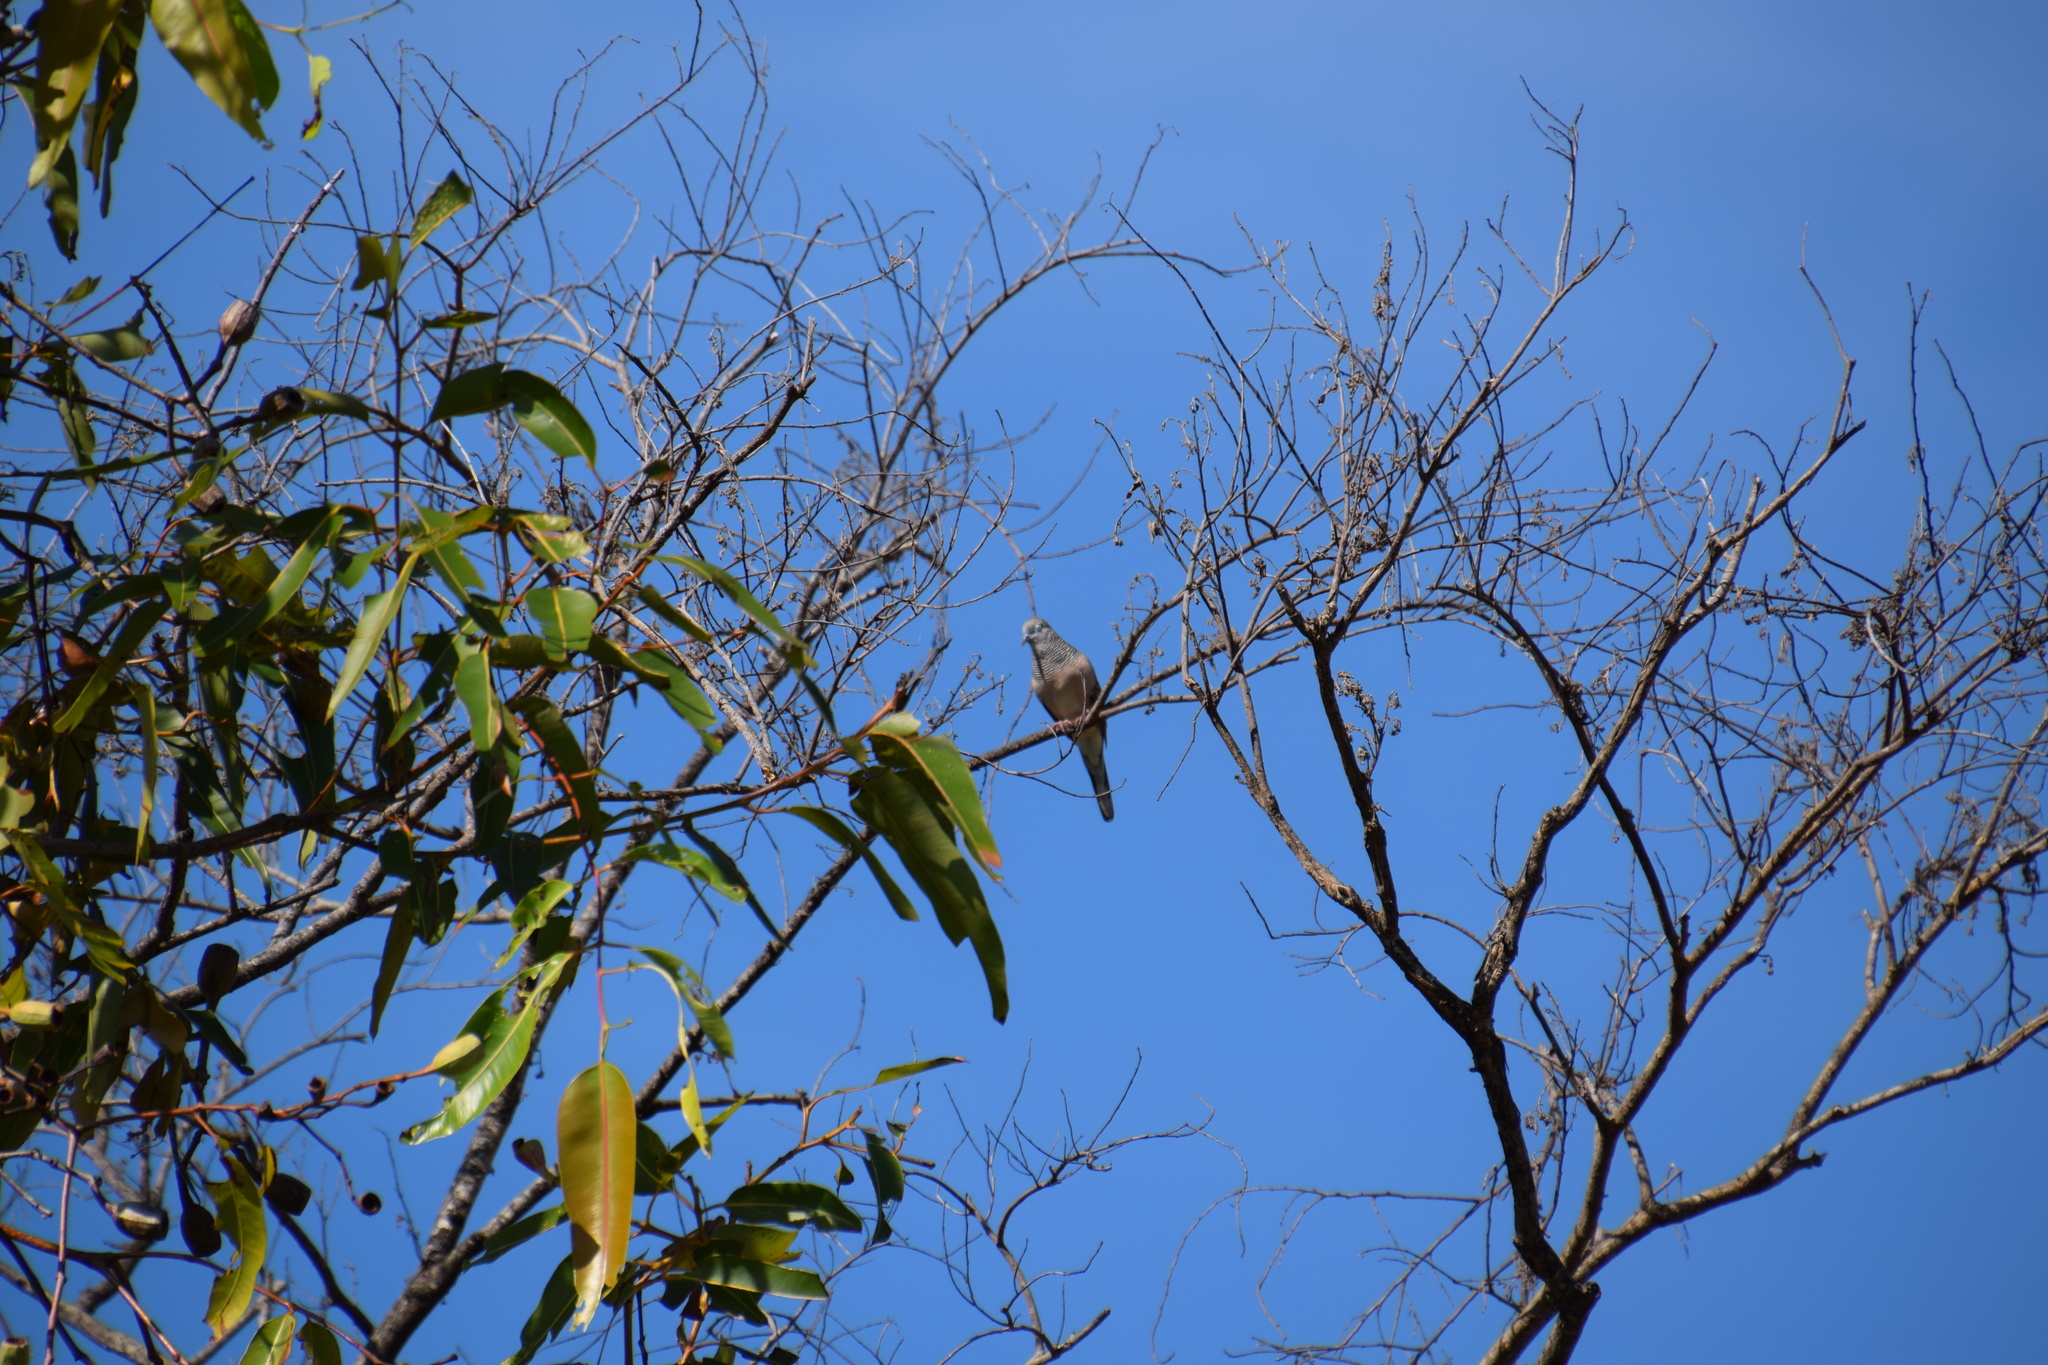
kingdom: Animalia
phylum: Chordata
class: Aves
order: Columbiformes
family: Columbidae
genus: Geopelia
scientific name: Geopelia placida
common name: Peaceful dove
